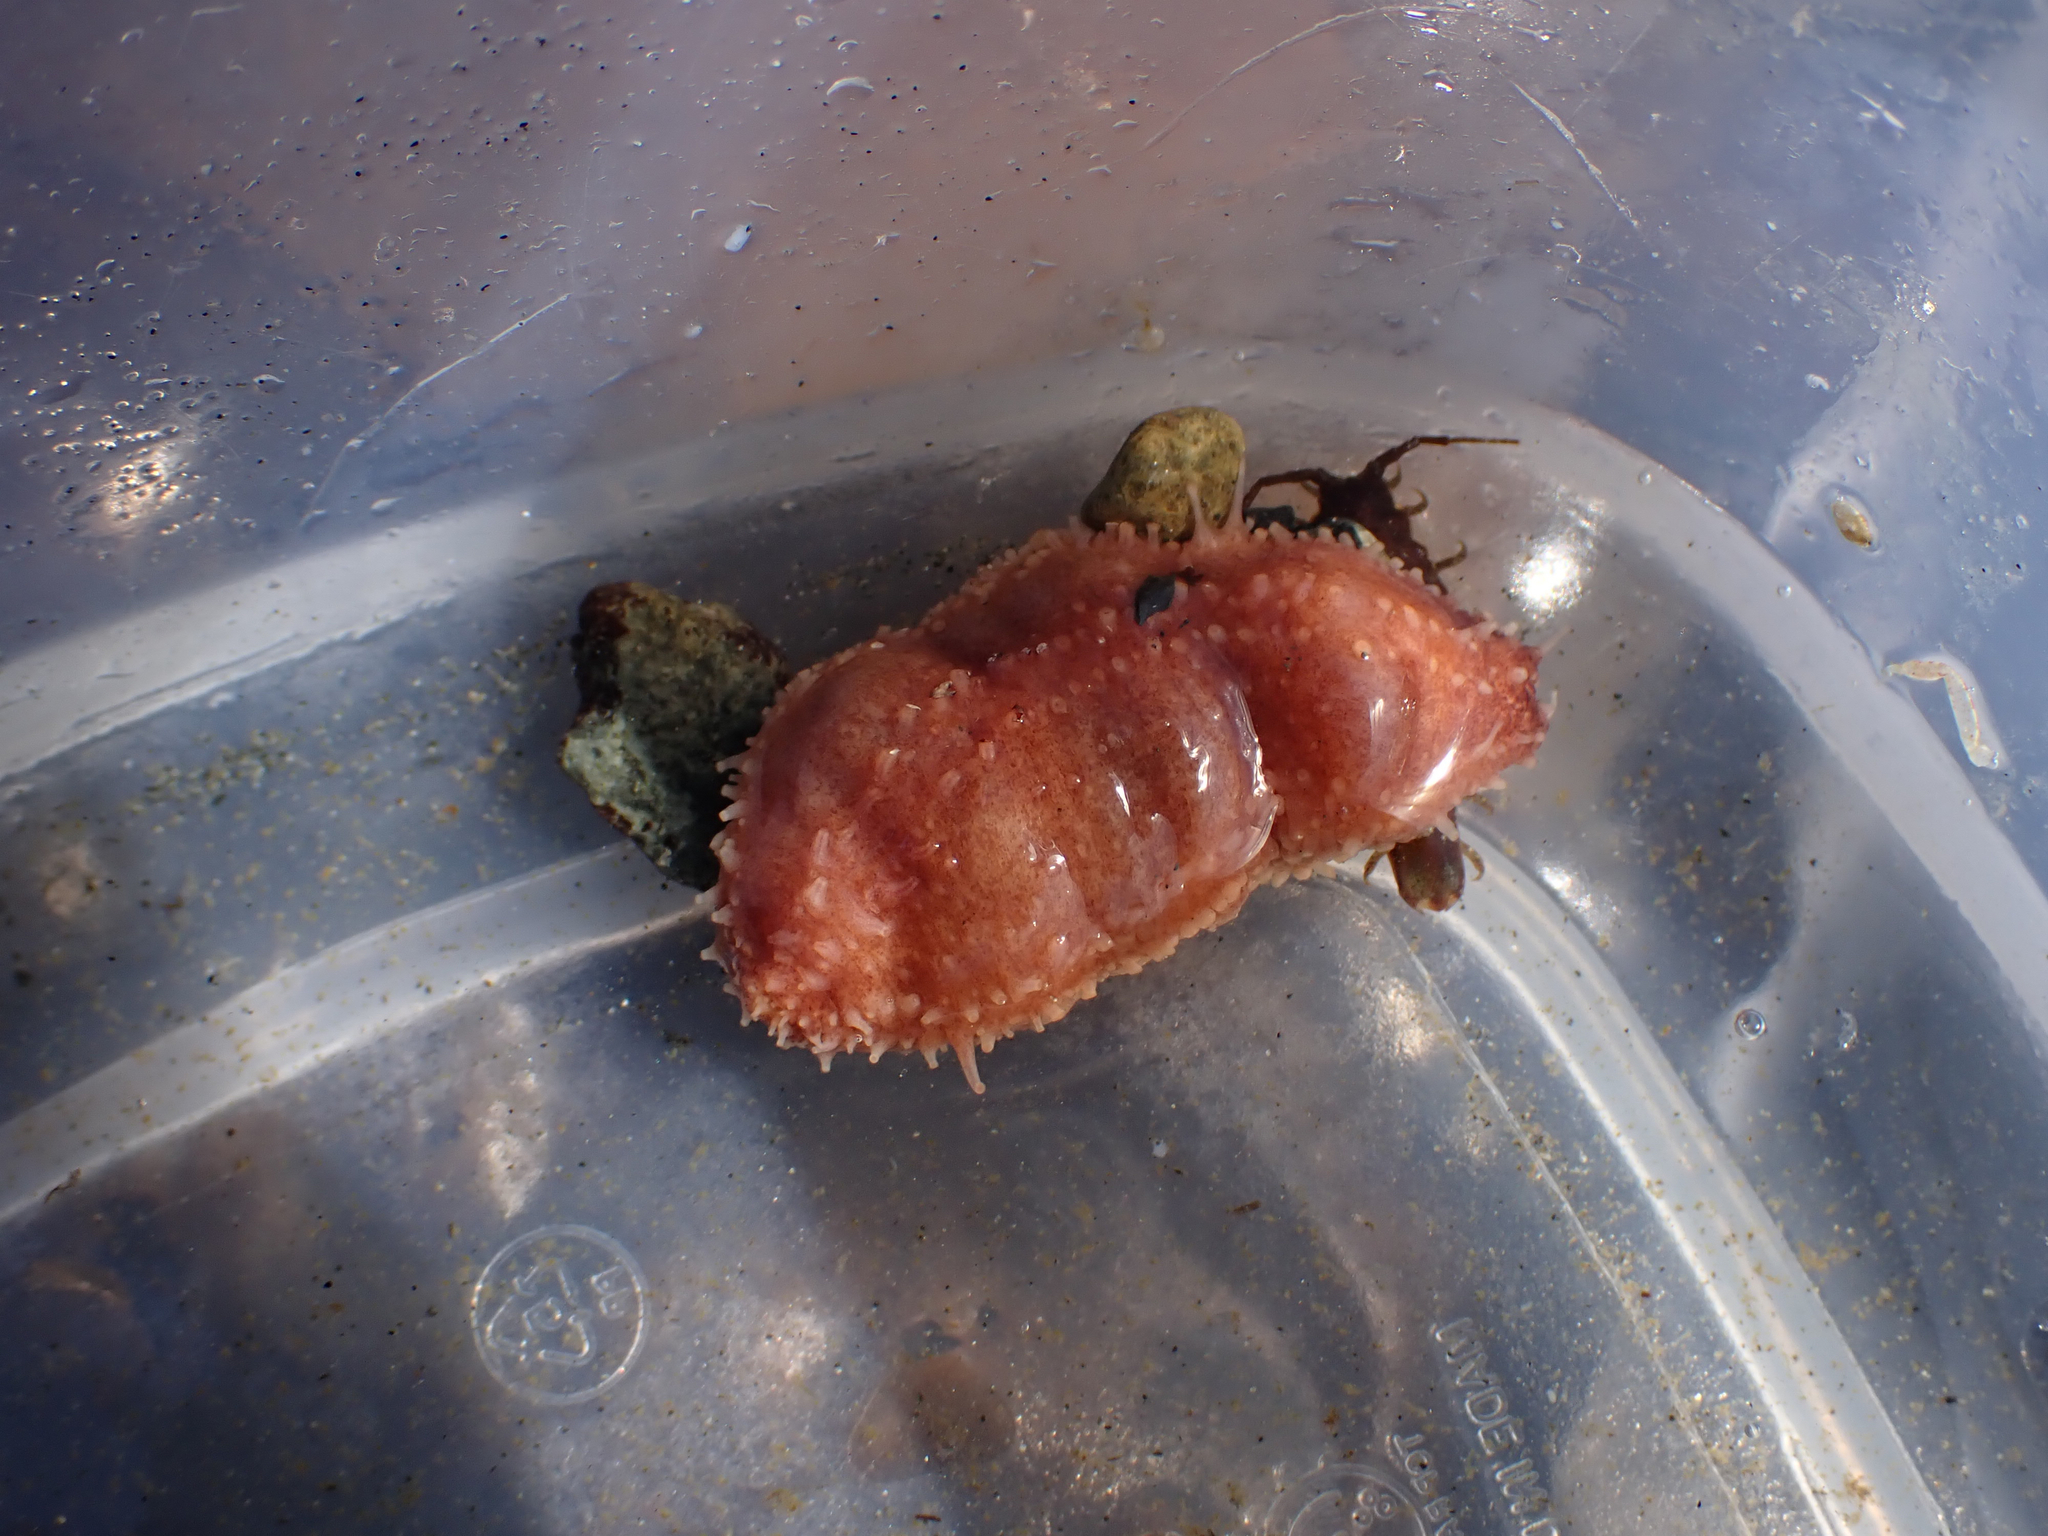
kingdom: Animalia
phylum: Echinodermata
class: Holothuroidea
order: Dendrochirotida
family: Cucumariidae
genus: Cucumaria
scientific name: Cucumaria miniata
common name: Orange sea cucumber
